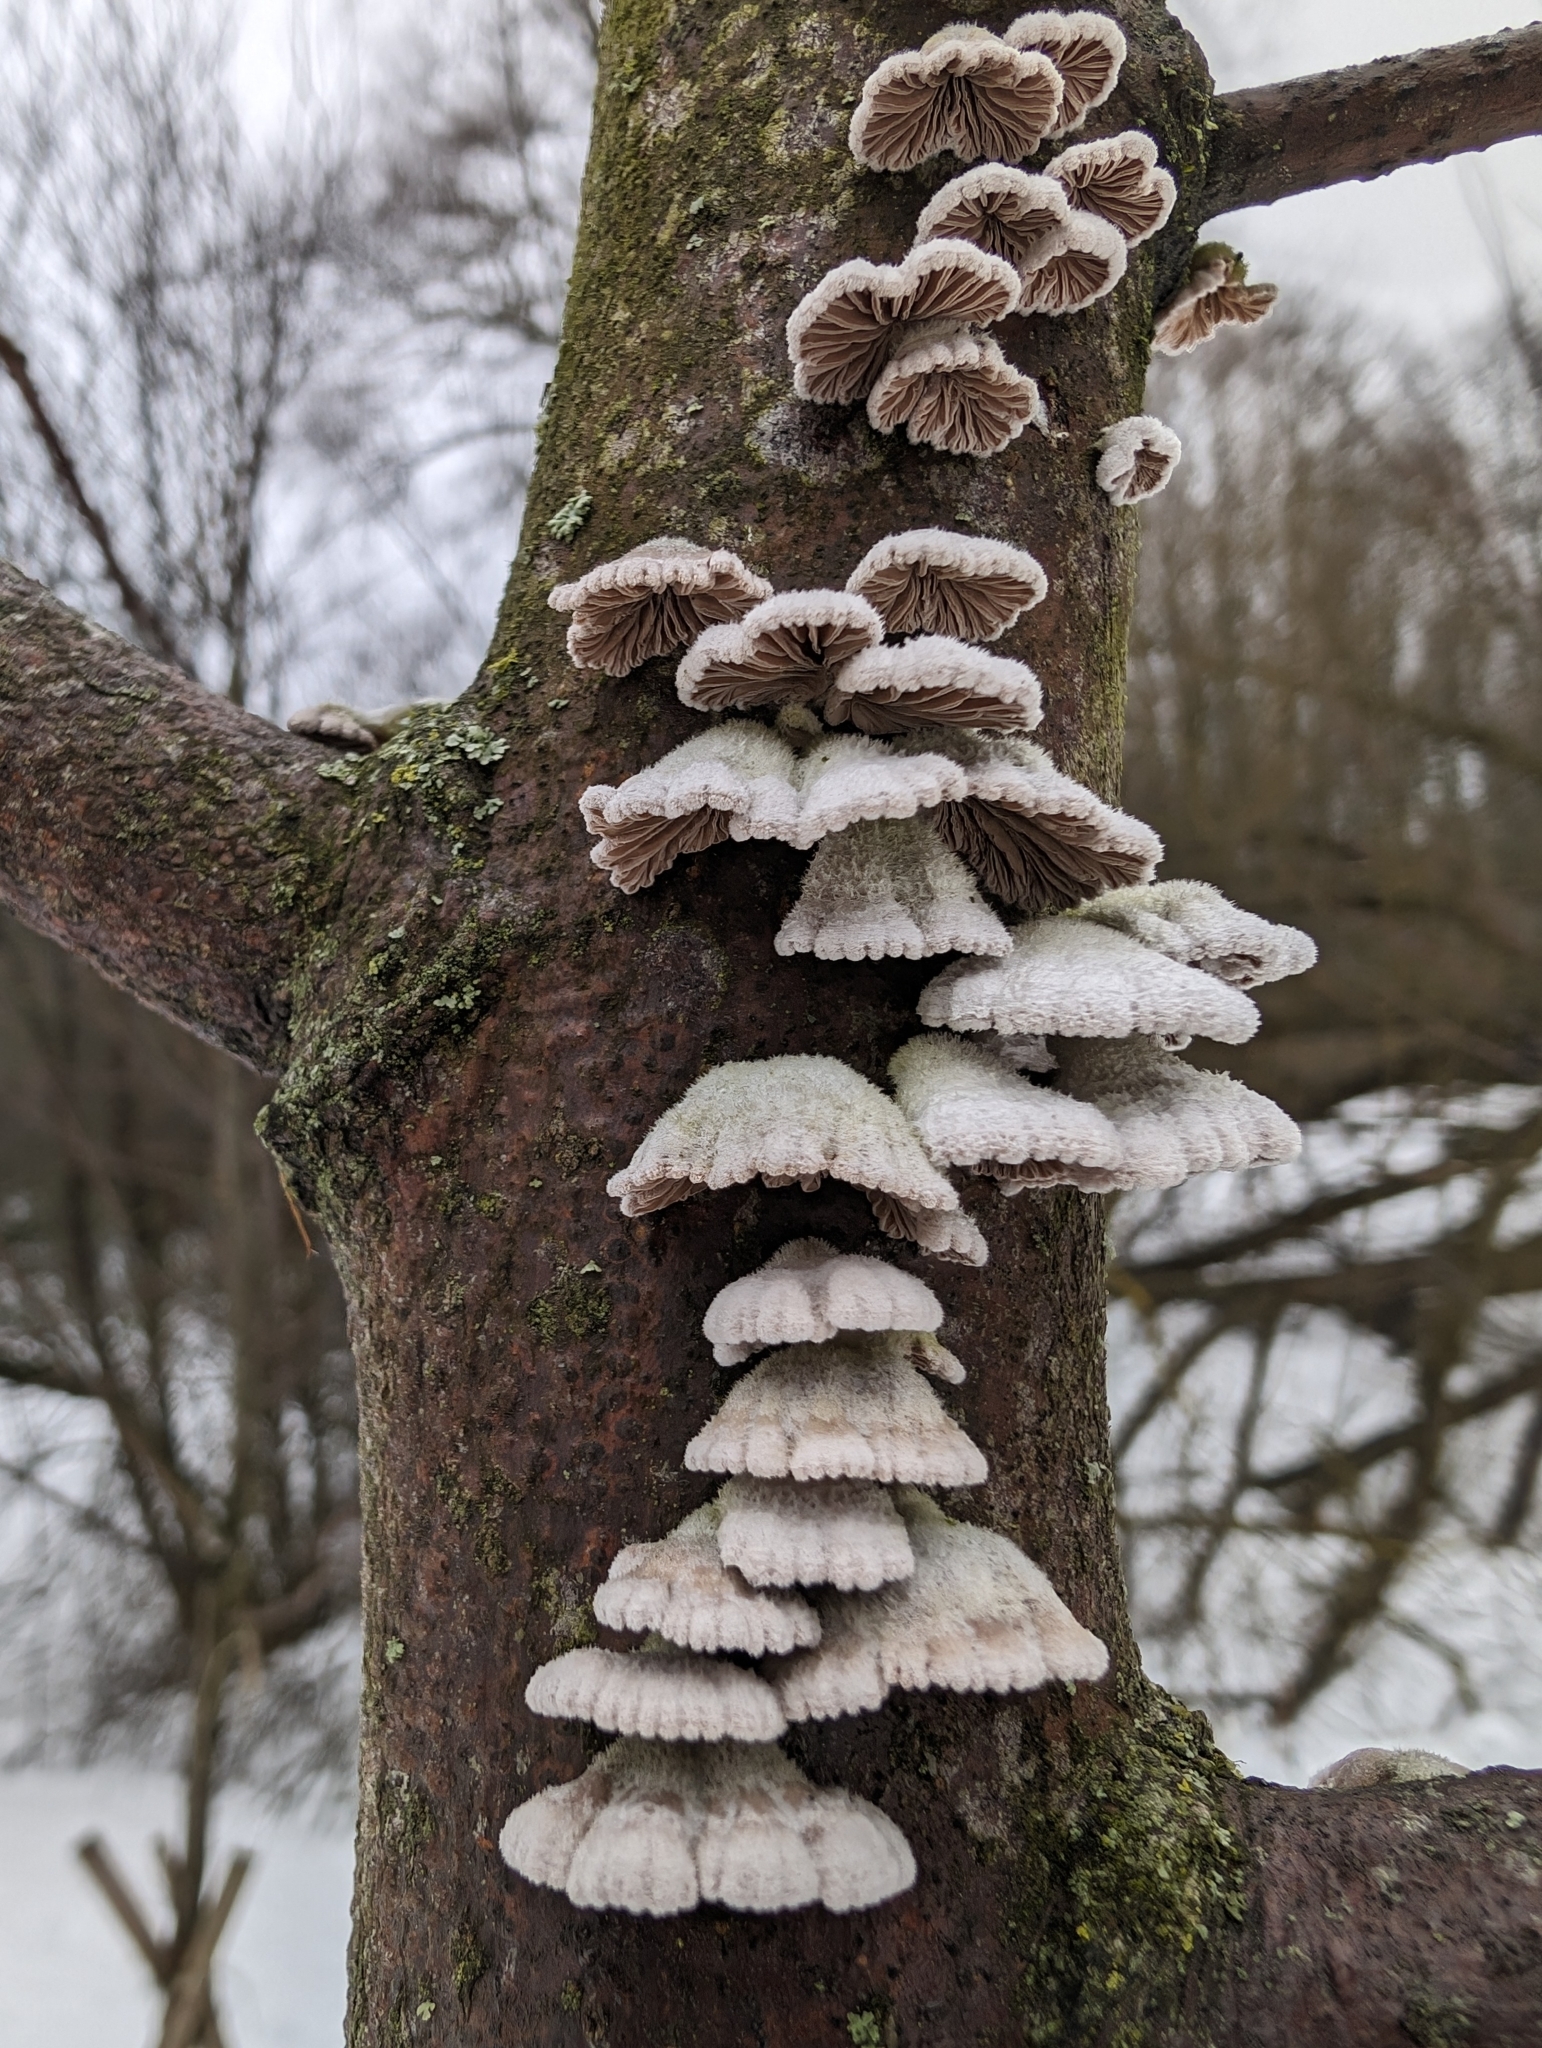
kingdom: Fungi
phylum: Basidiomycota
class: Agaricomycetes
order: Agaricales
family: Schizophyllaceae
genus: Schizophyllum
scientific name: Schizophyllum commune
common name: Common porecrust
